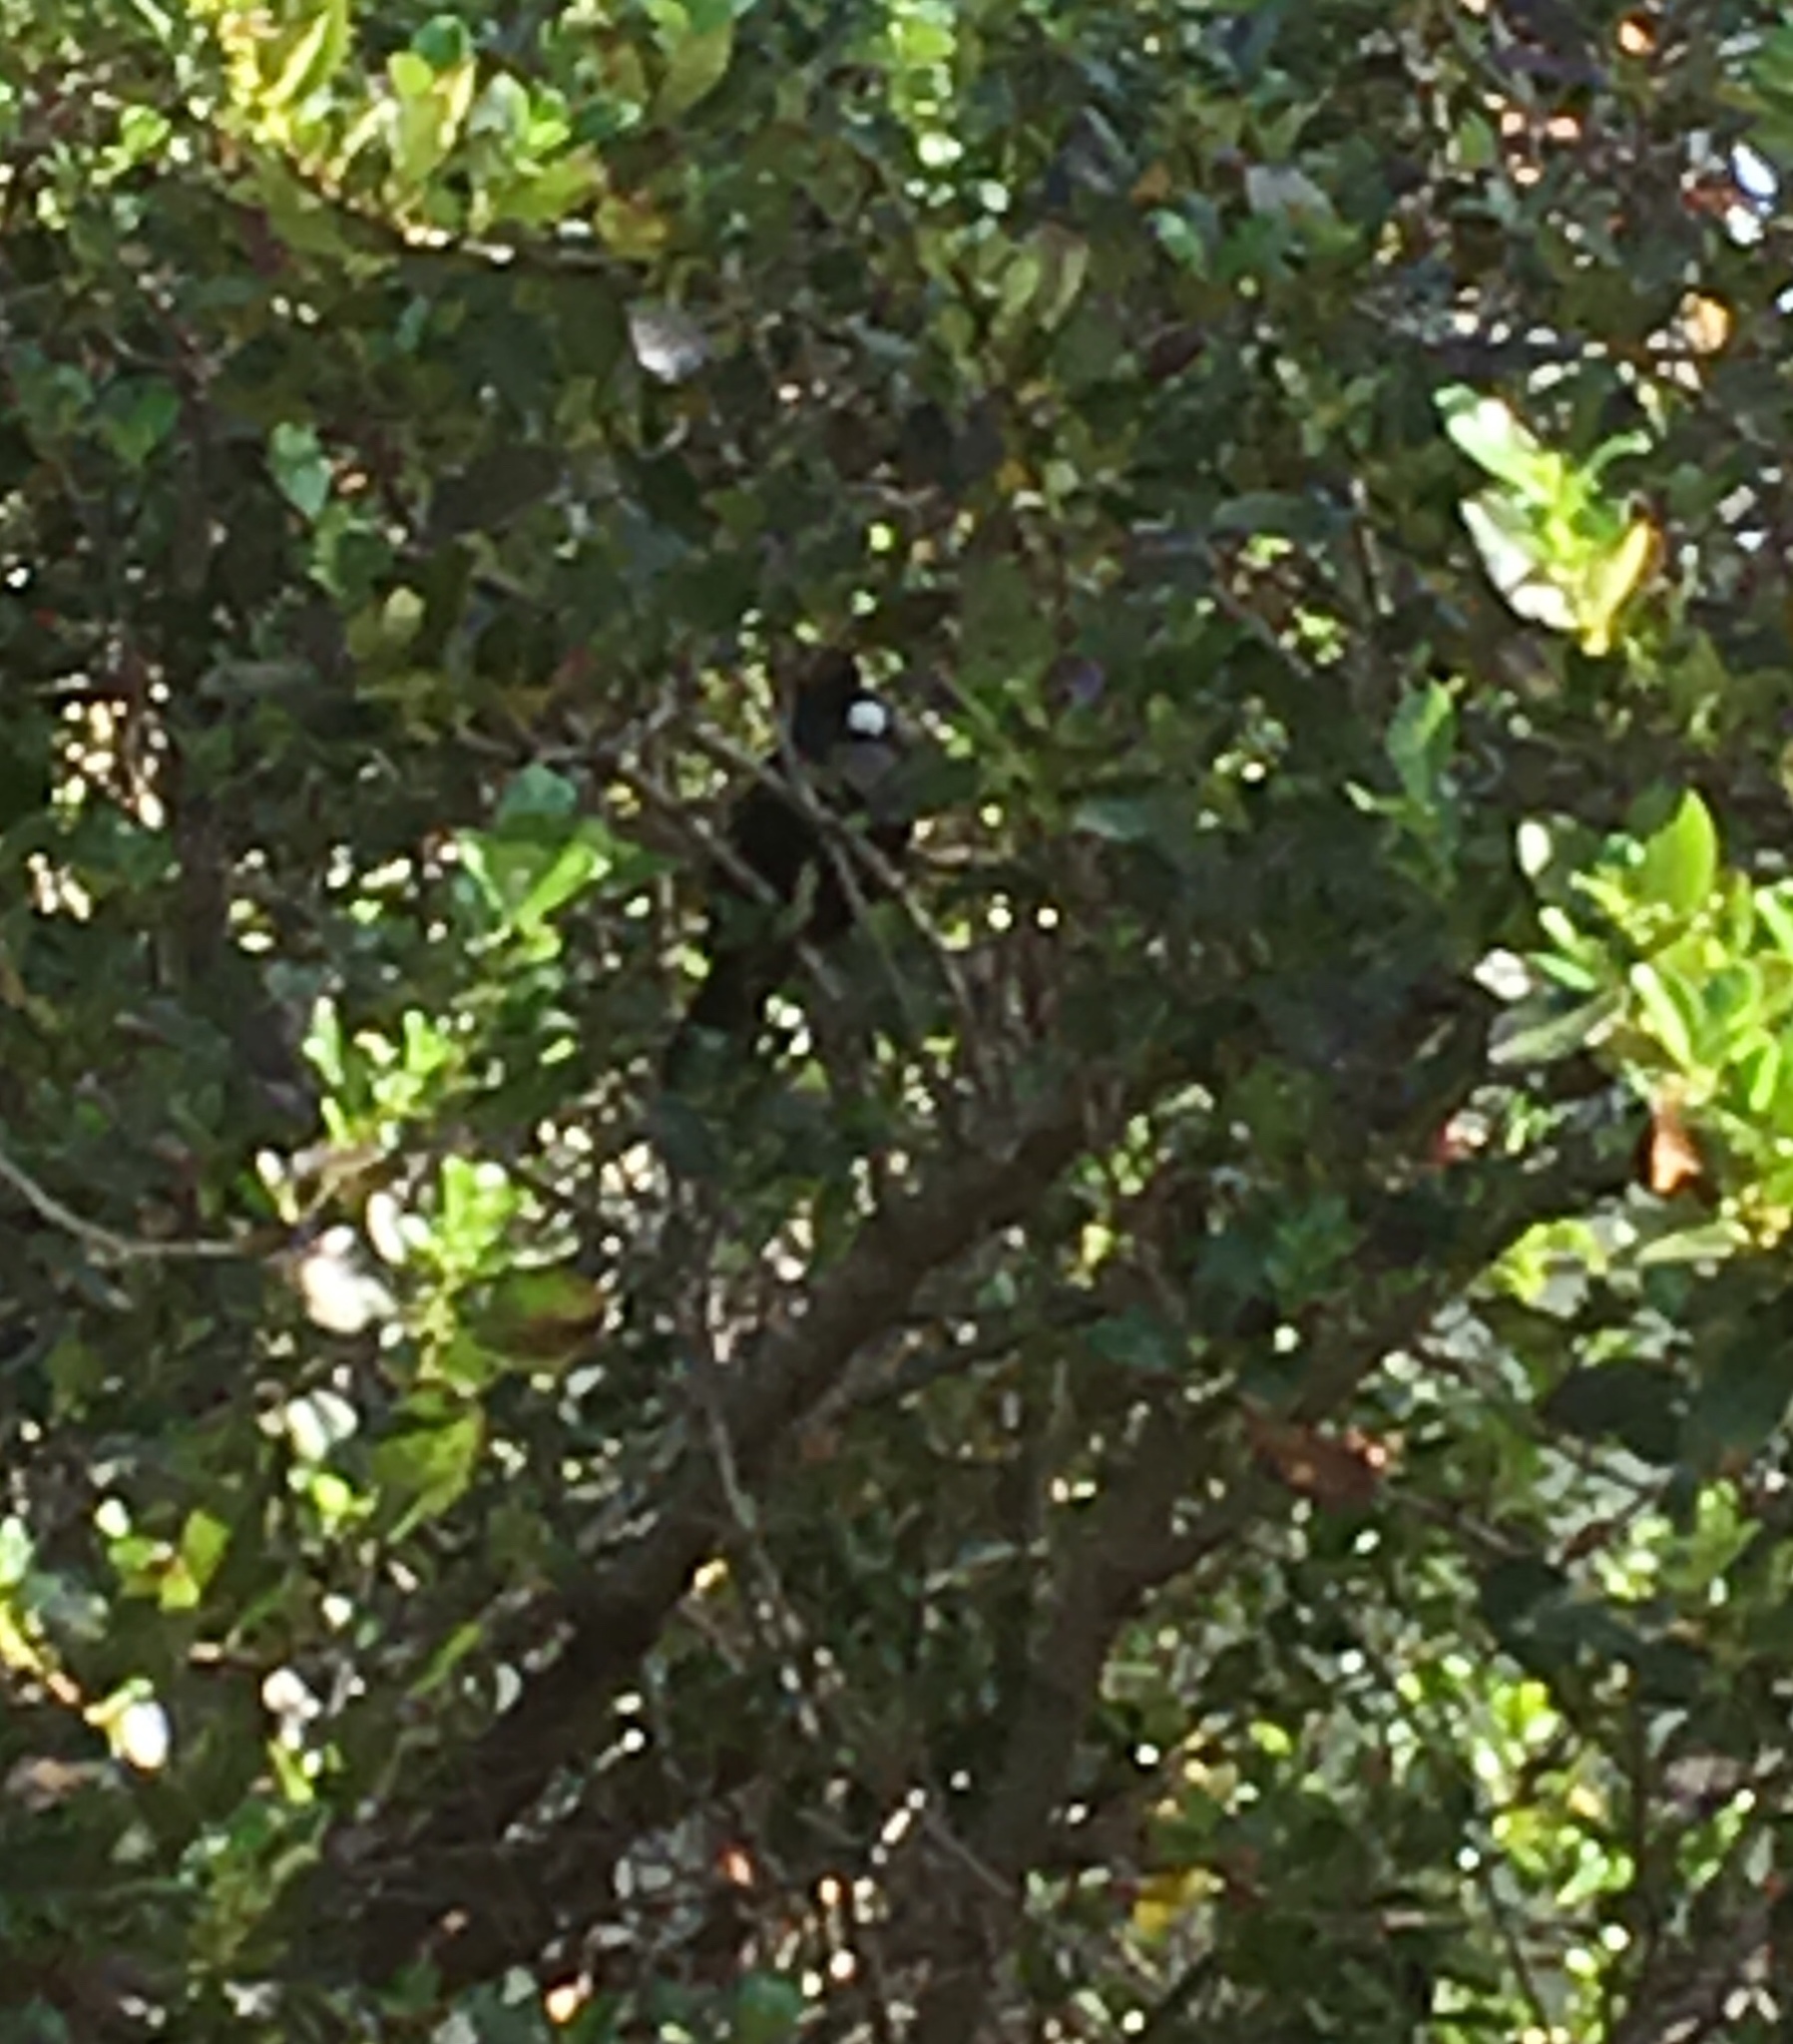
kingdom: Animalia
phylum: Chordata
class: Aves
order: Passeriformes
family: Meliphagidae
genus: Prosthemadera
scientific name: Prosthemadera novaeseelandiae
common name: Tui
